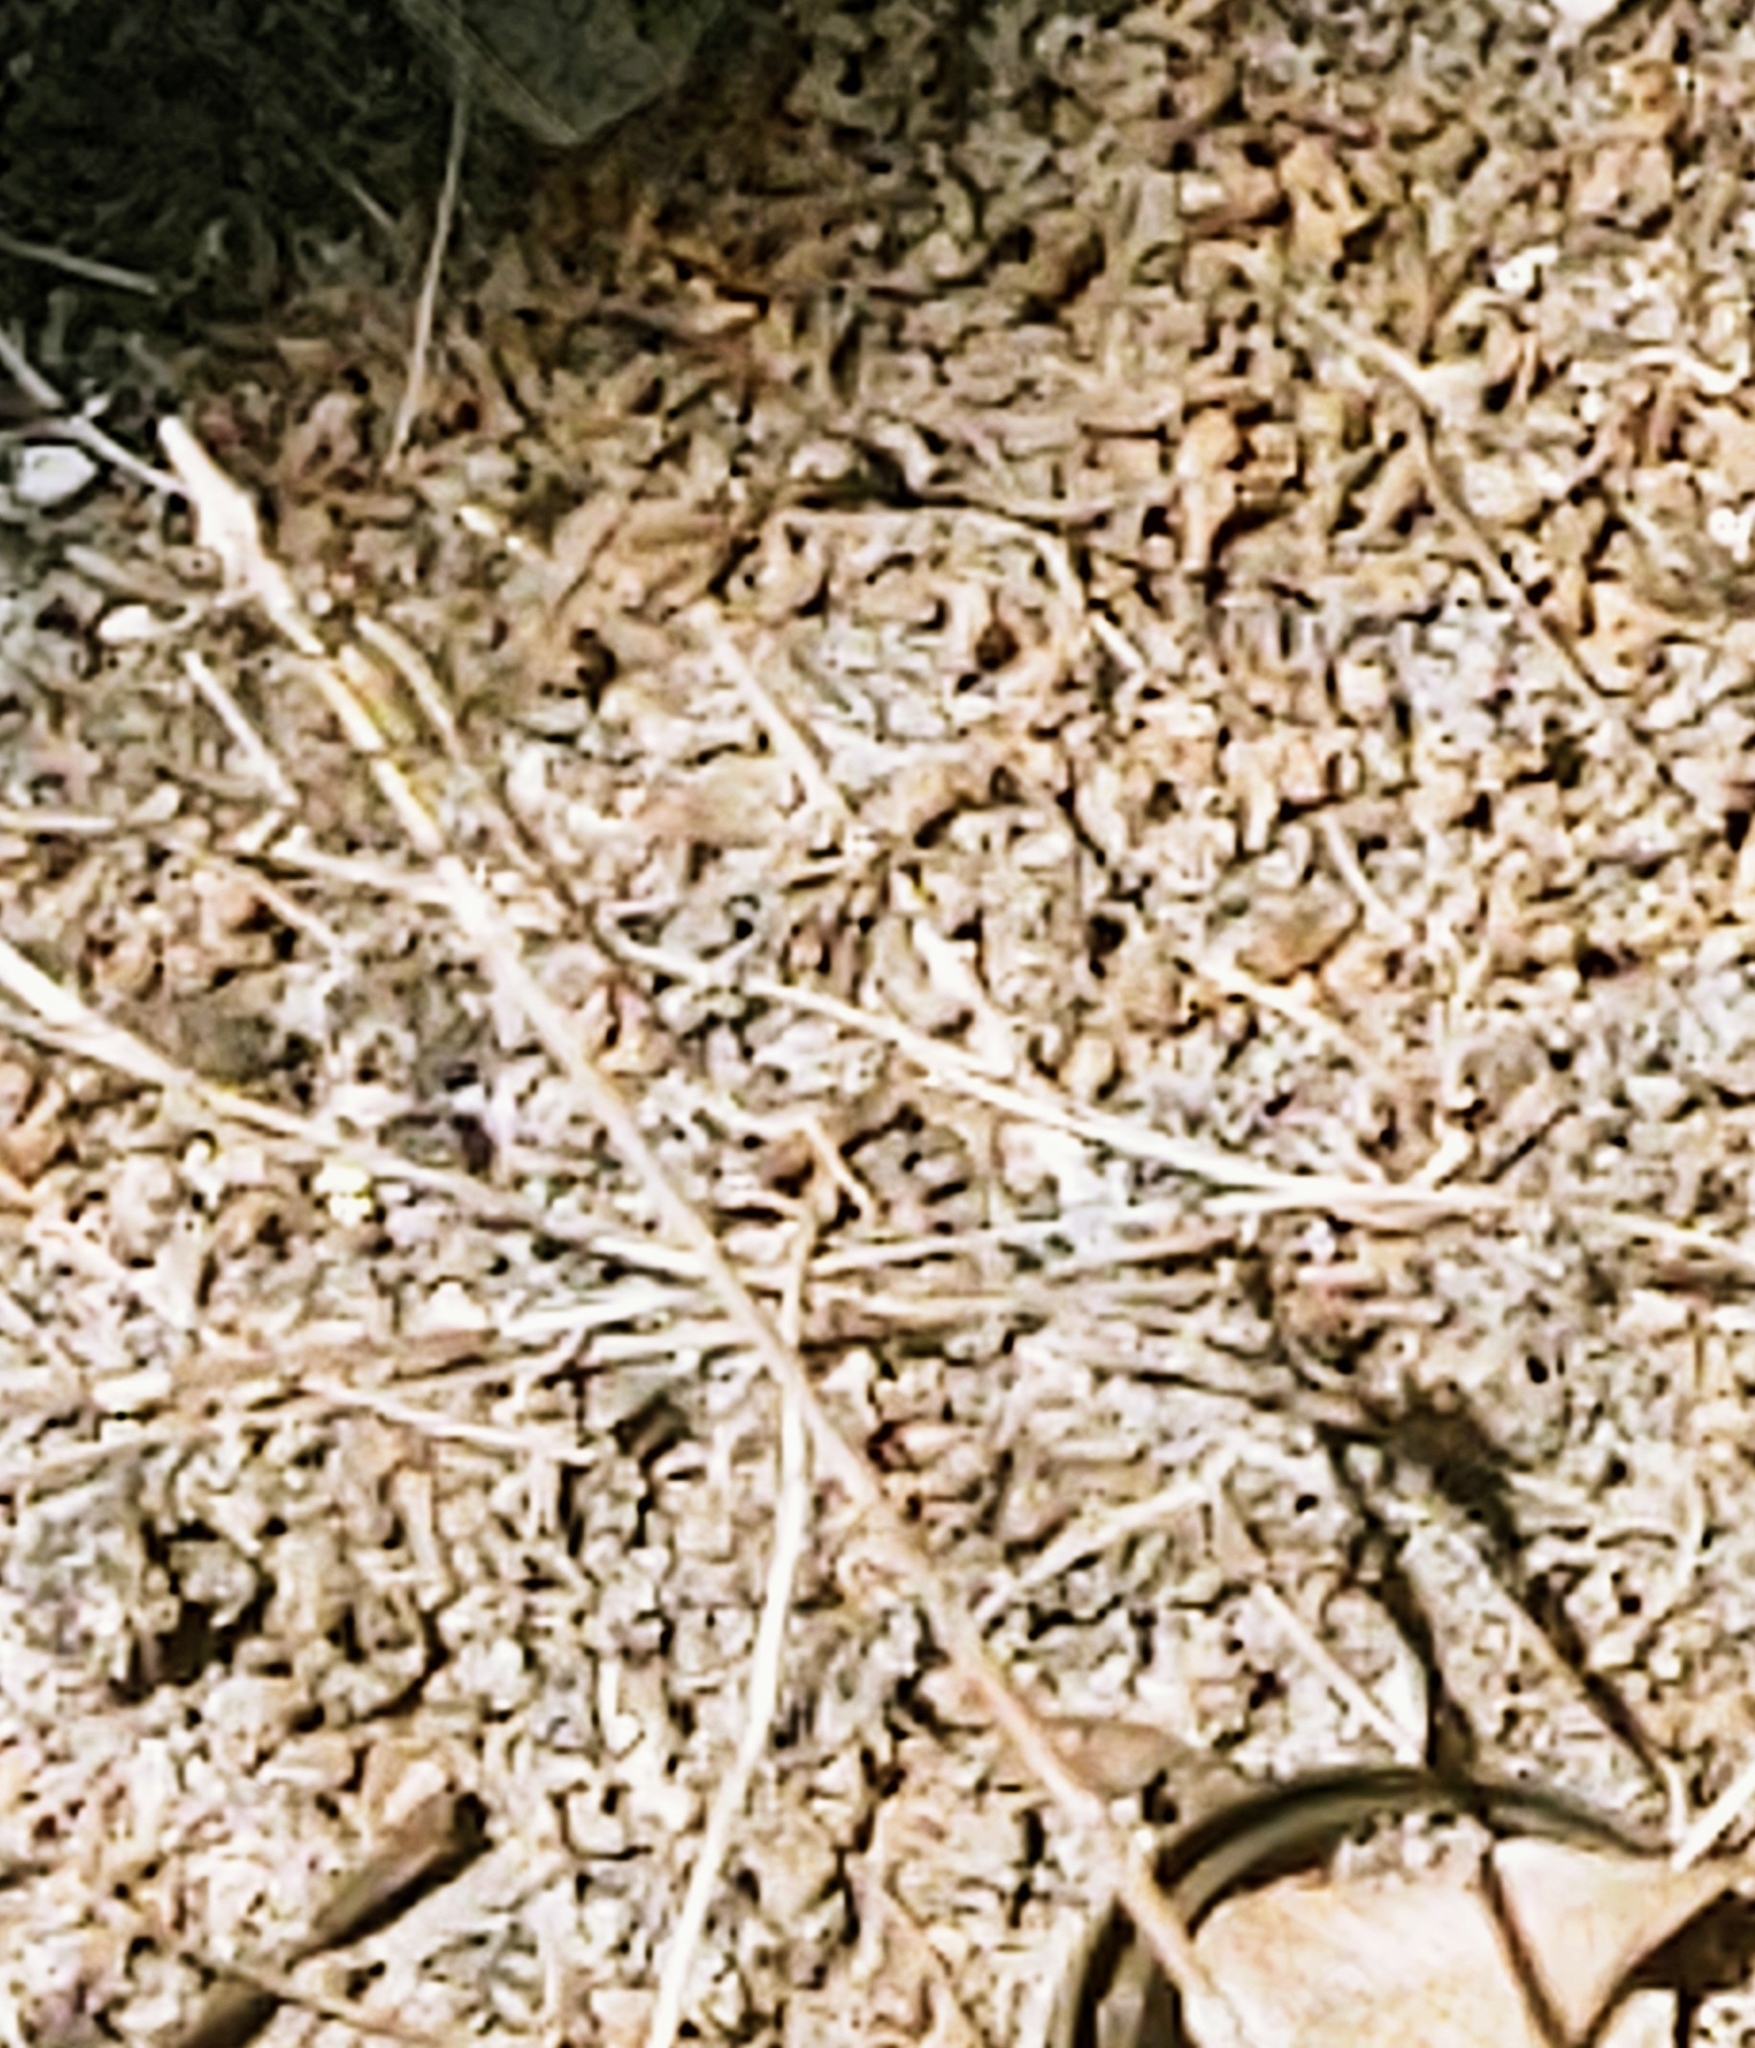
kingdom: Animalia
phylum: Arthropoda
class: Insecta
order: Odonata
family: Libellulidae
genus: Erythrodiplax
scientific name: Erythrodiplax umbrata
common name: Band-winged dragonlet
